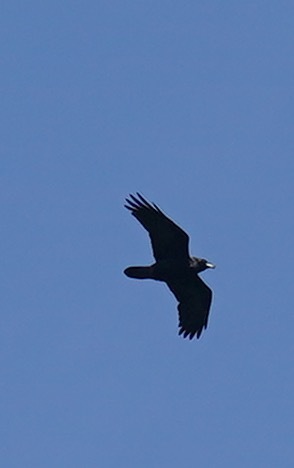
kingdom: Animalia
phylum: Chordata
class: Aves
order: Passeriformes
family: Corvidae
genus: Corvus
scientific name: Corvus corax
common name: Common raven
